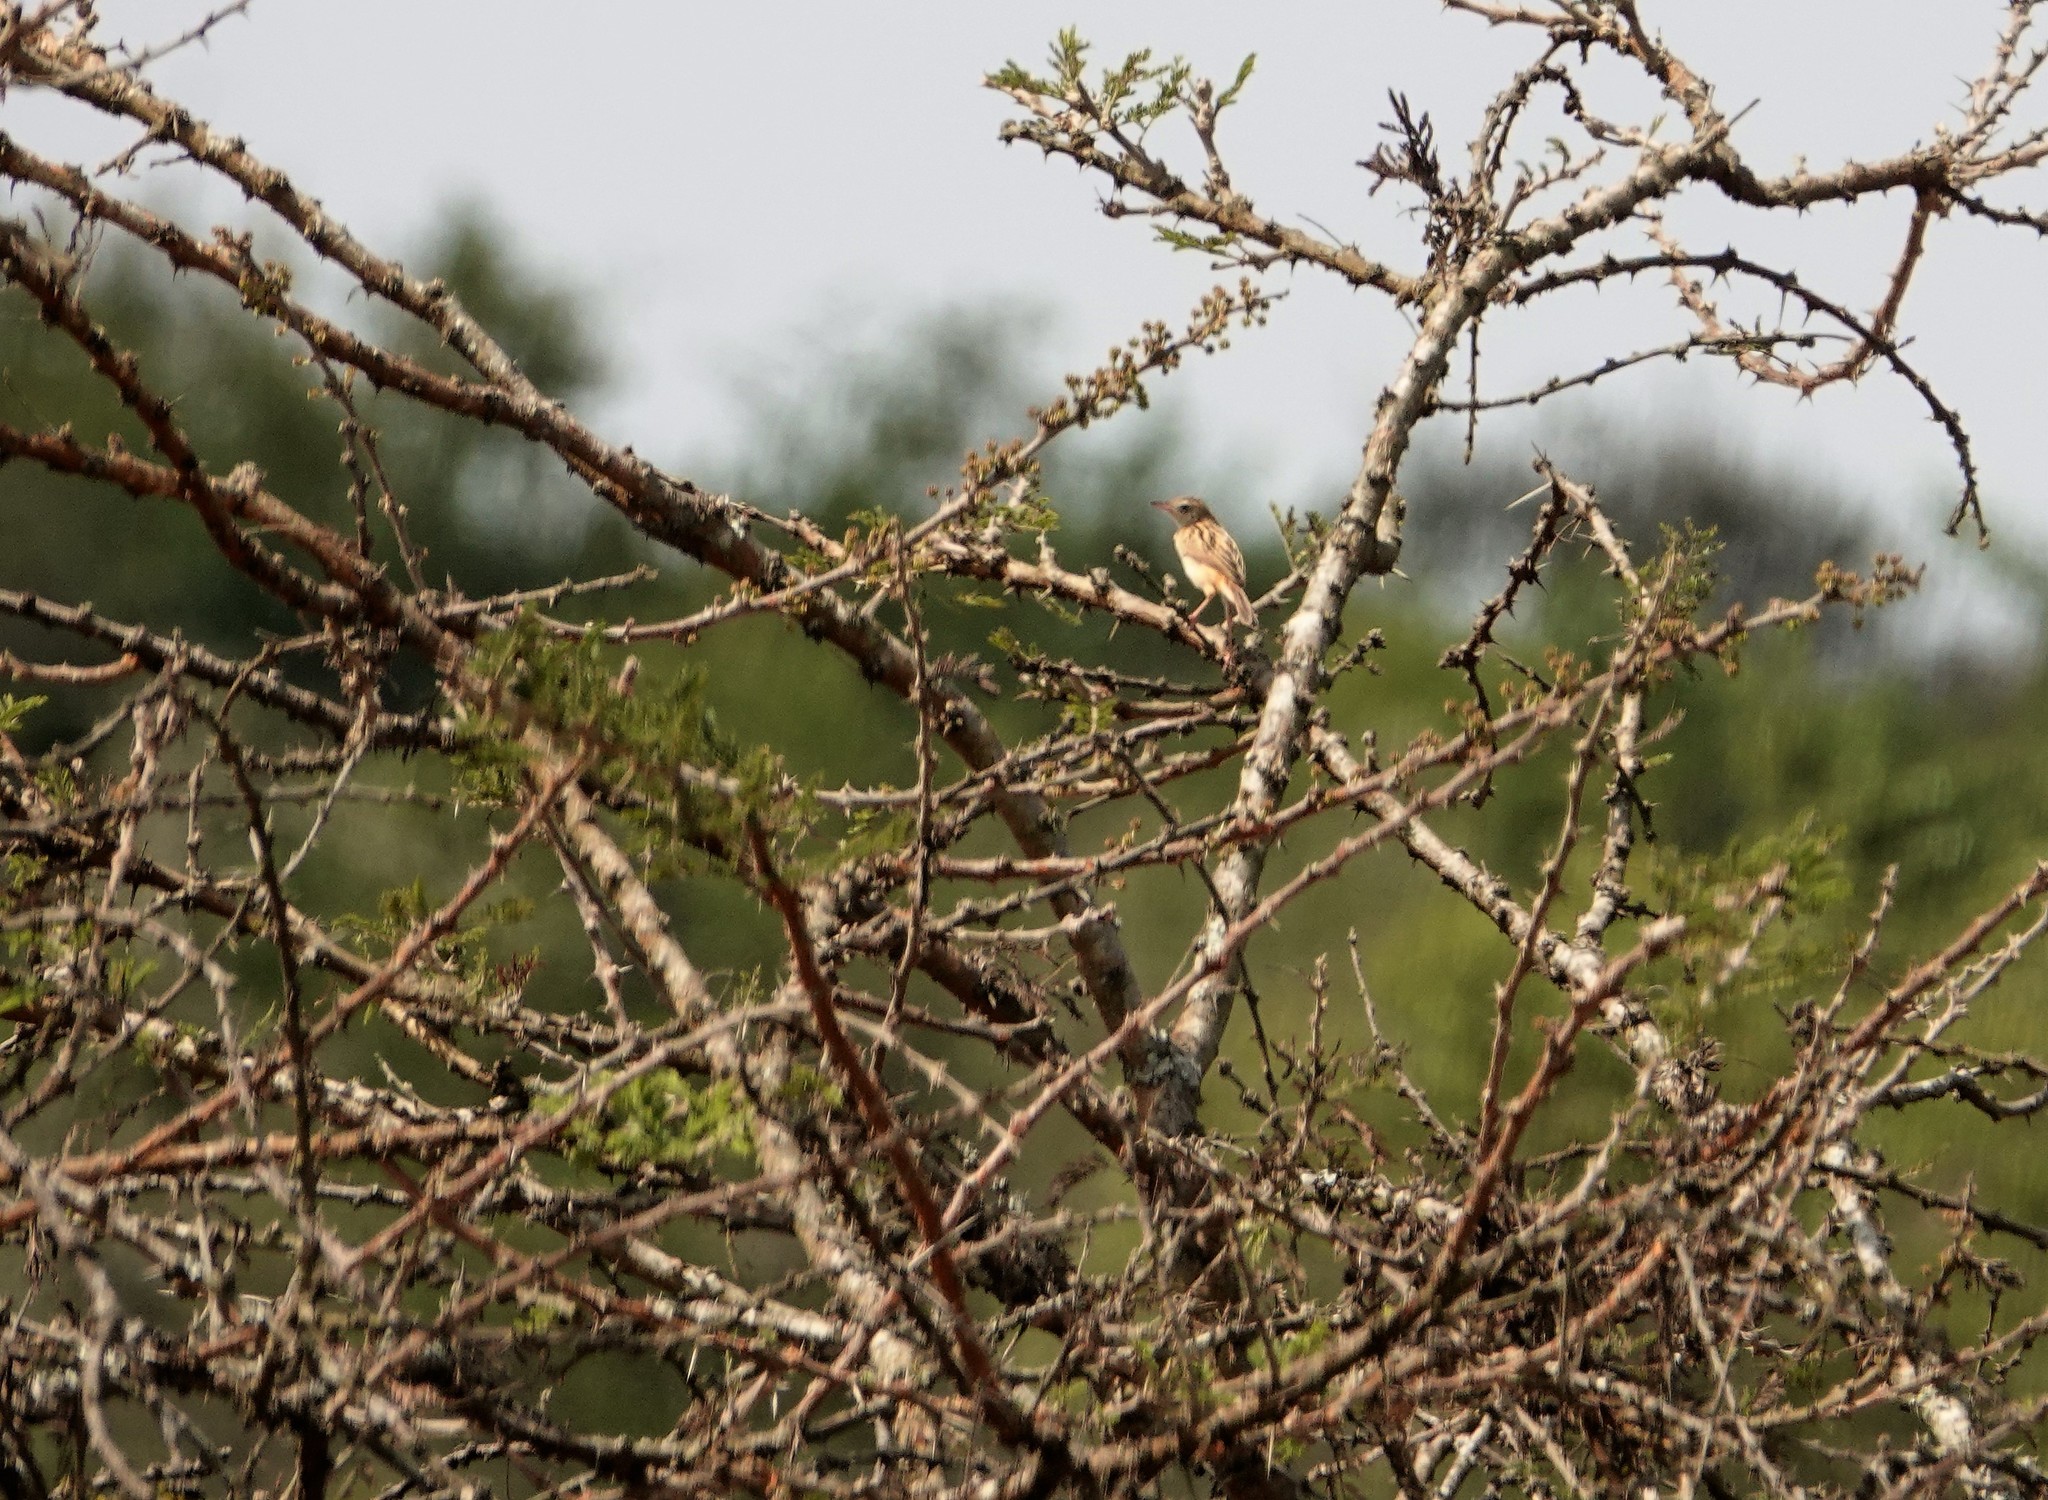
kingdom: Animalia
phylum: Chordata
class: Aves
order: Passeriformes
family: Cisticolidae
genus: Cisticola
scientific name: Cisticola juncidis
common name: Zitting cisticola
